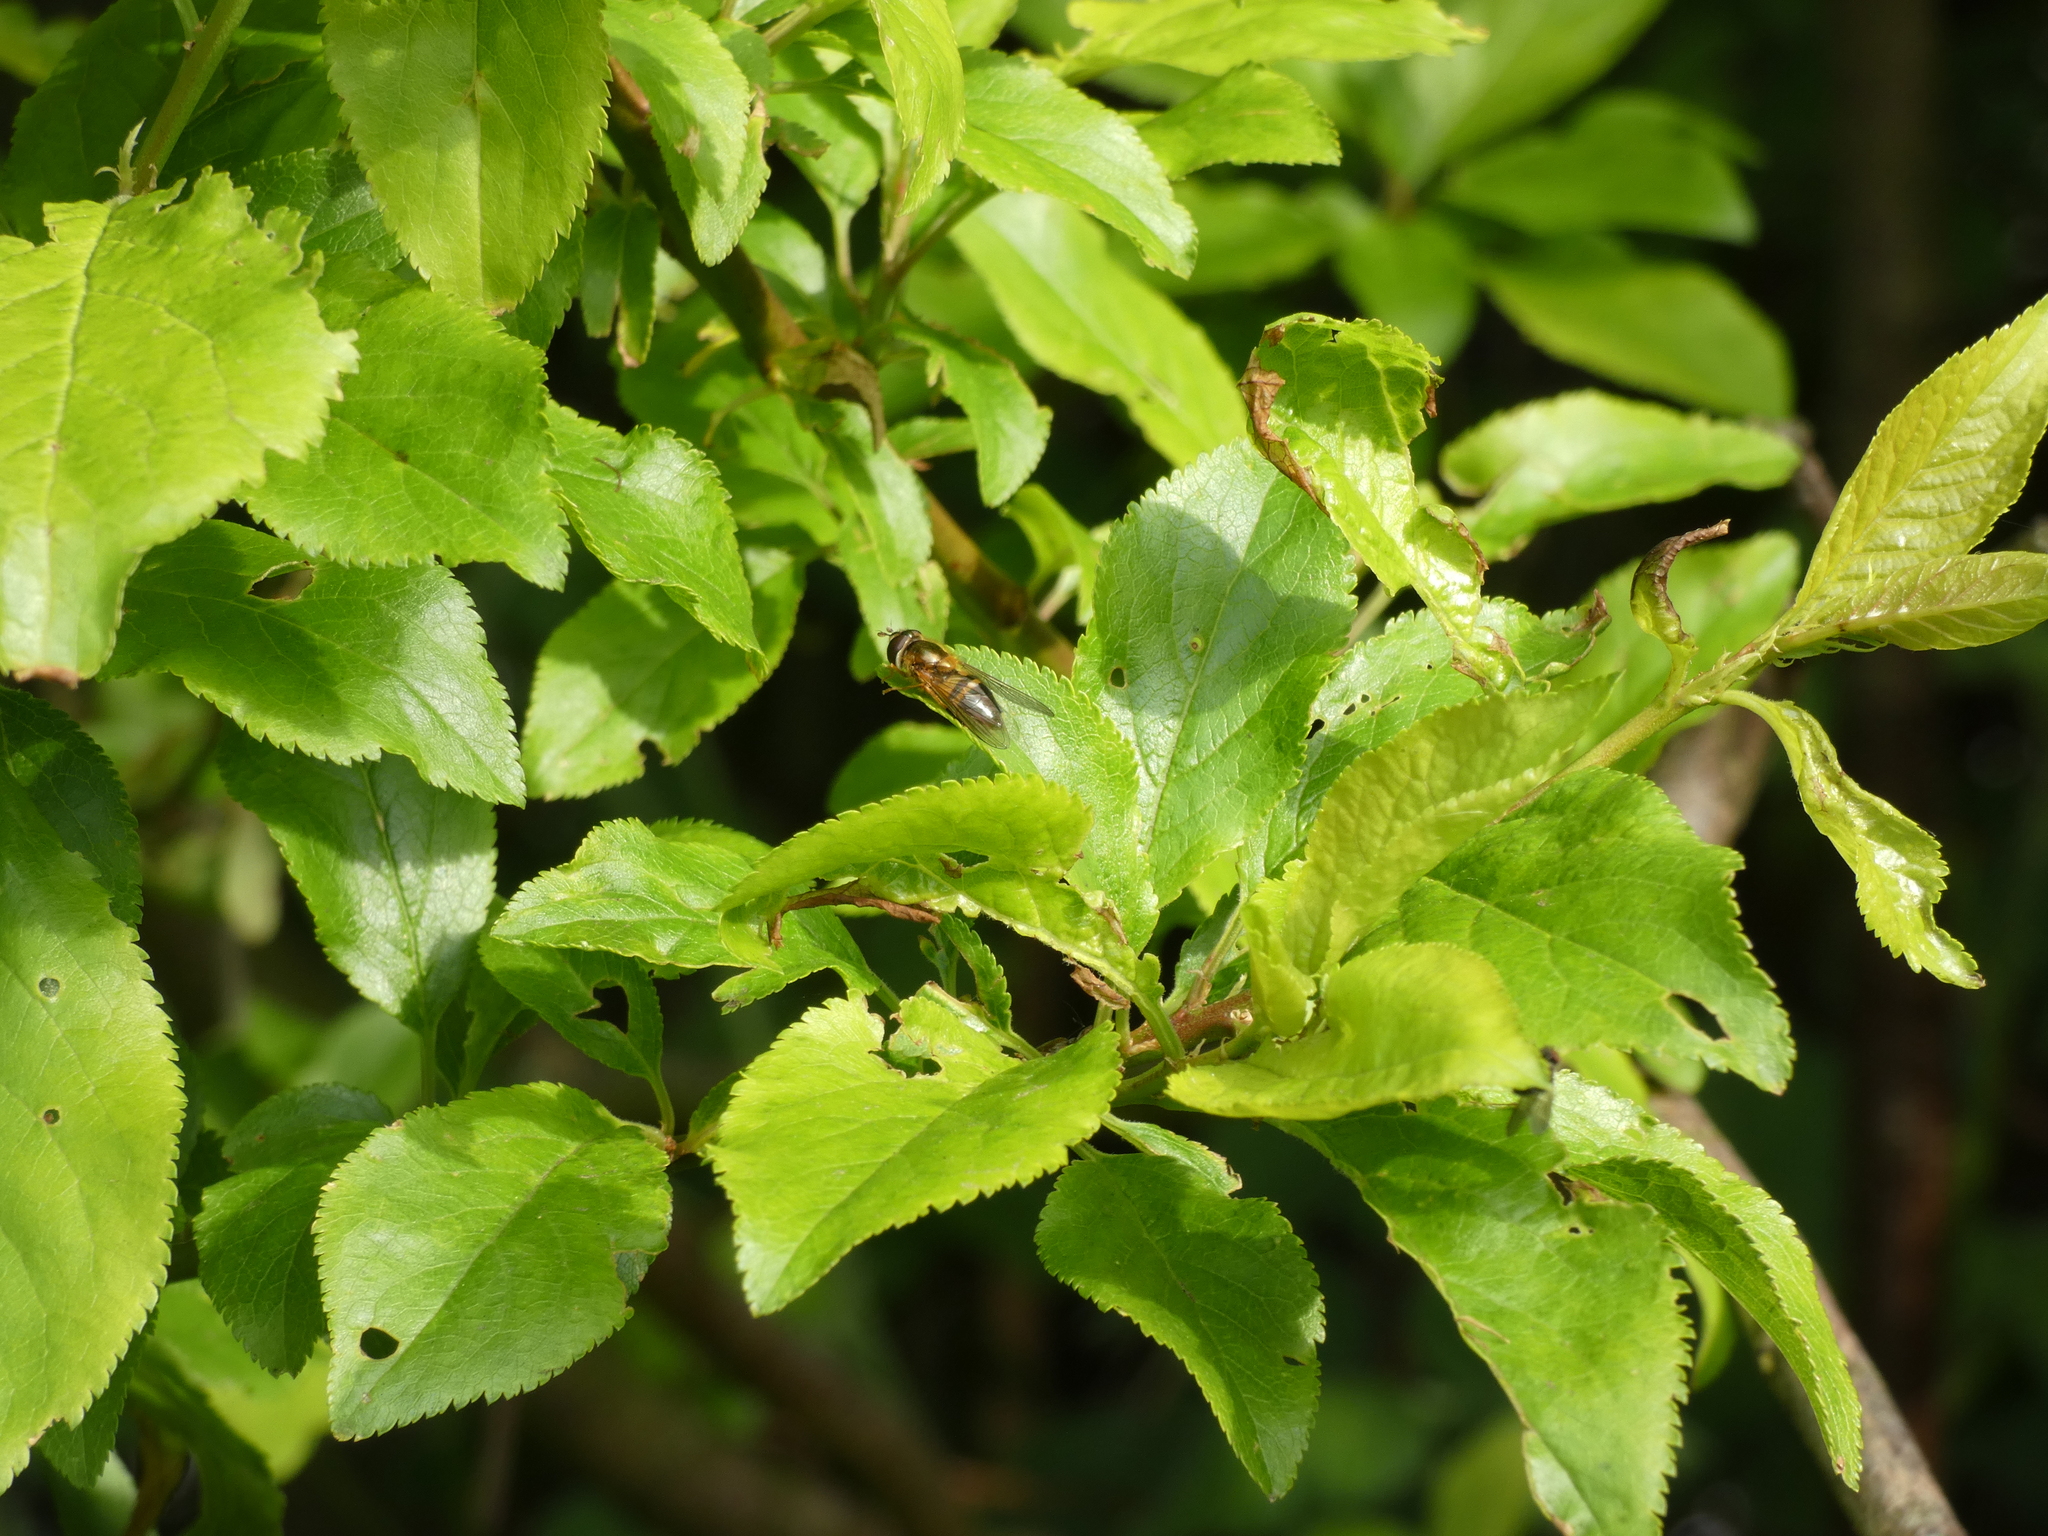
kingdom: Animalia
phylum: Arthropoda
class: Insecta
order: Diptera
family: Syrphidae
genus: Epistrophe
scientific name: Epistrophe eligans
